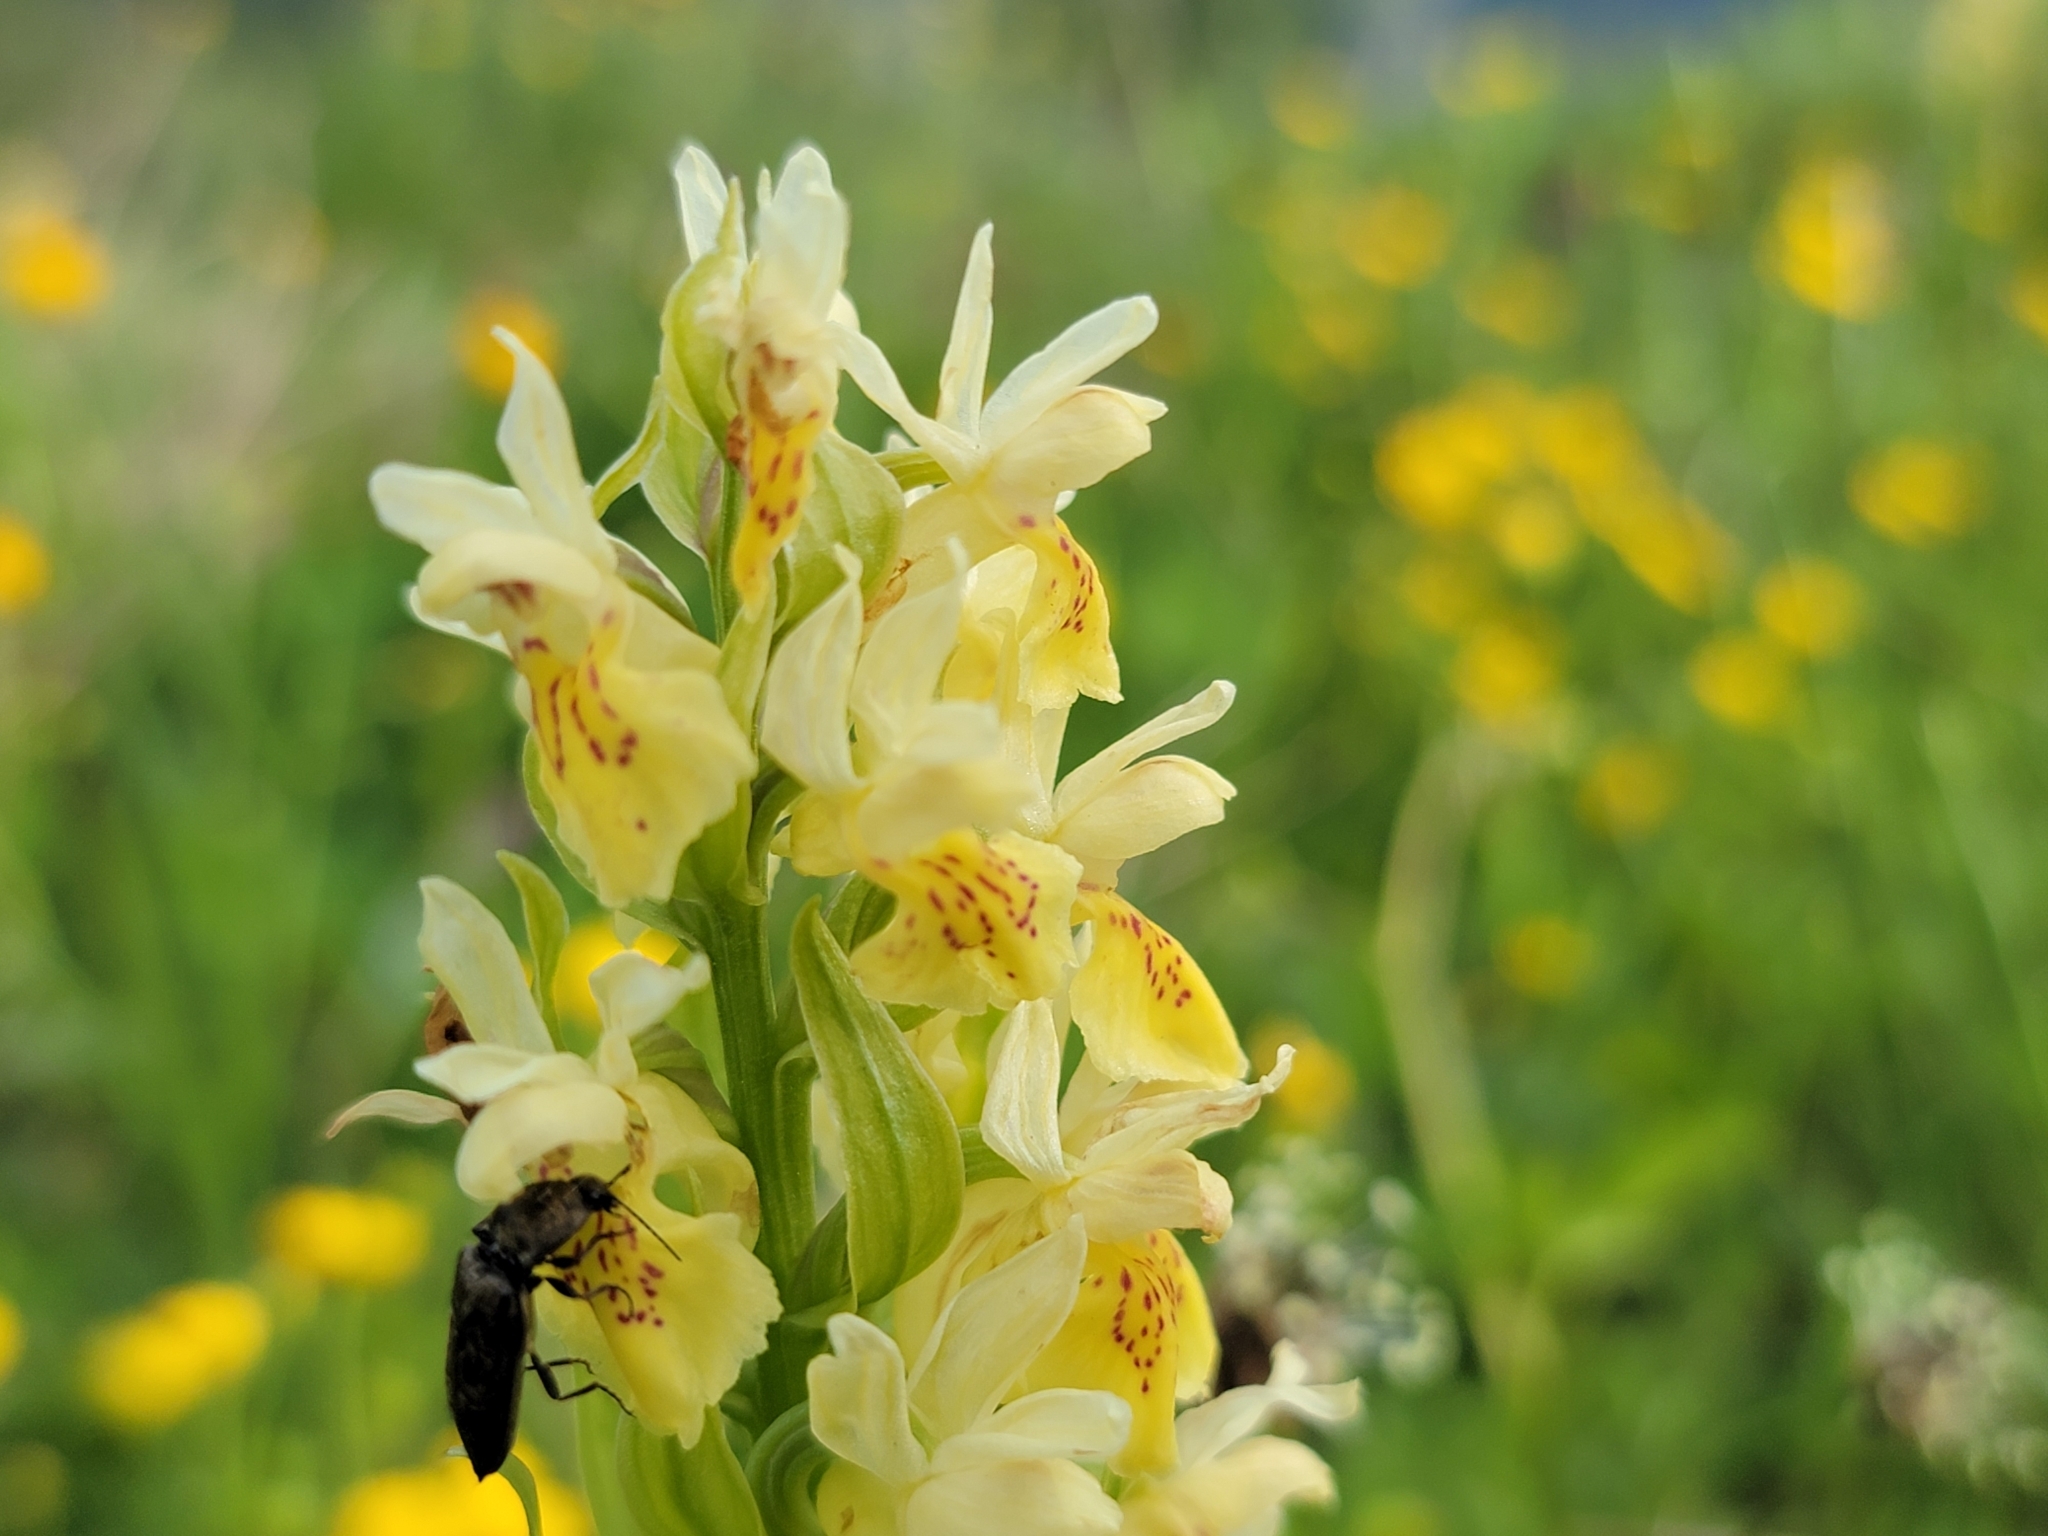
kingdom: Plantae
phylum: Tracheophyta
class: Liliopsida
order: Asparagales
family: Orchidaceae
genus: Dactylorhiza
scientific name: Dactylorhiza sambucina
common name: Elder-flowered orchid
